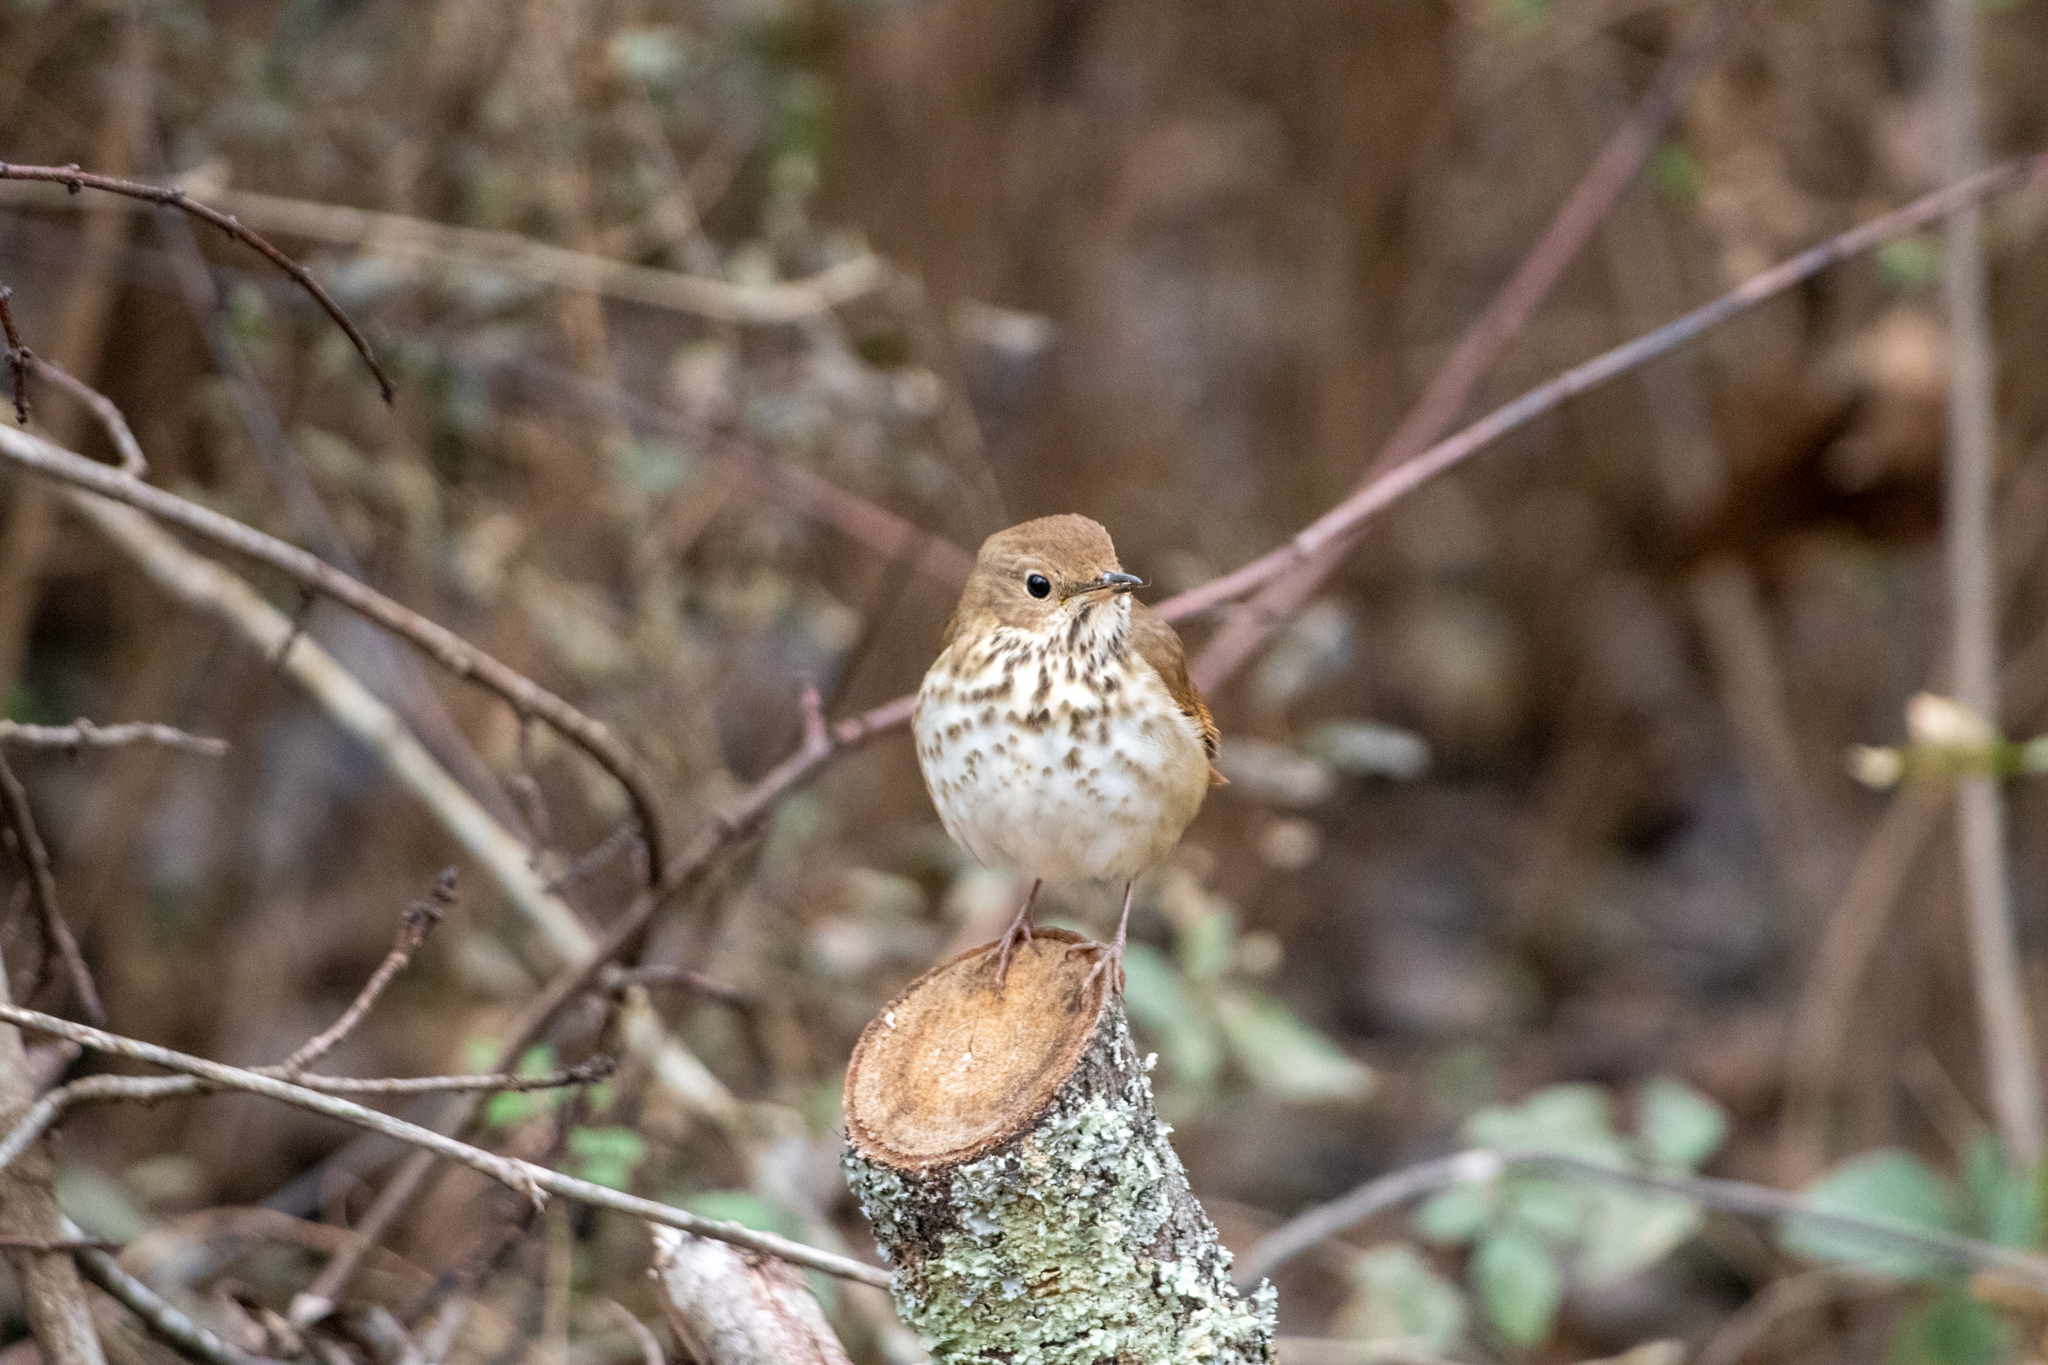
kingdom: Animalia
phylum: Chordata
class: Aves
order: Passeriformes
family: Turdidae
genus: Catharus
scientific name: Catharus guttatus
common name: Hermit thrush
